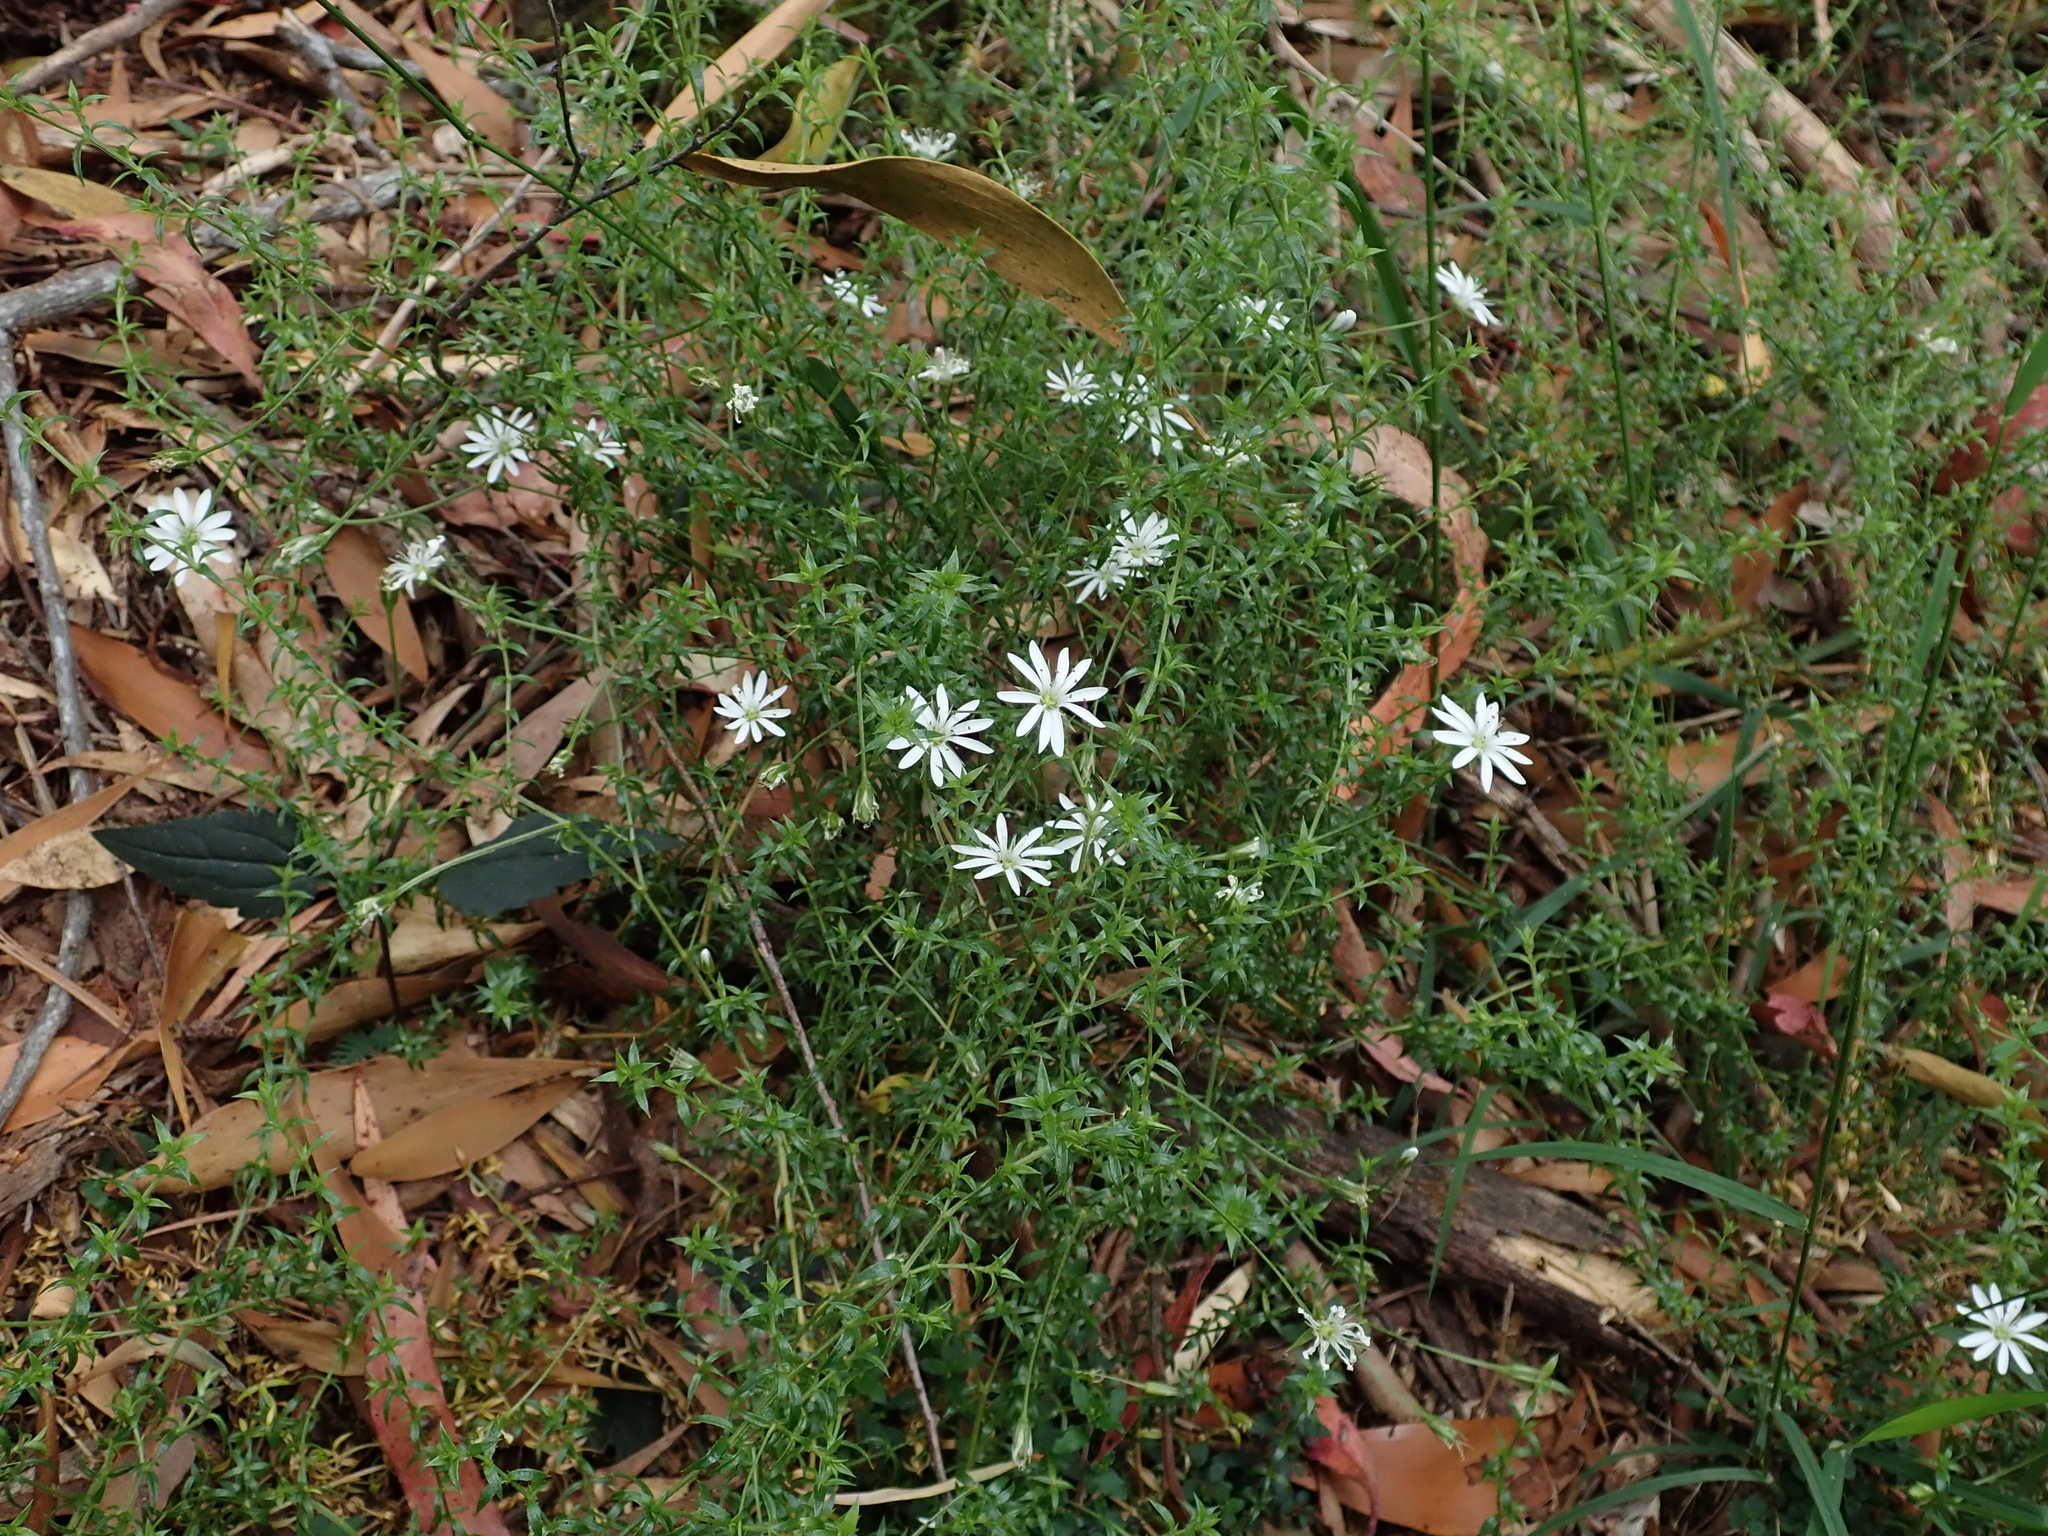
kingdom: Plantae
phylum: Tracheophyta
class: Magnoliopsida
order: Caryophyllales
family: Caryophyllaceae
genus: Stellaria
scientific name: Stellaria pungens
